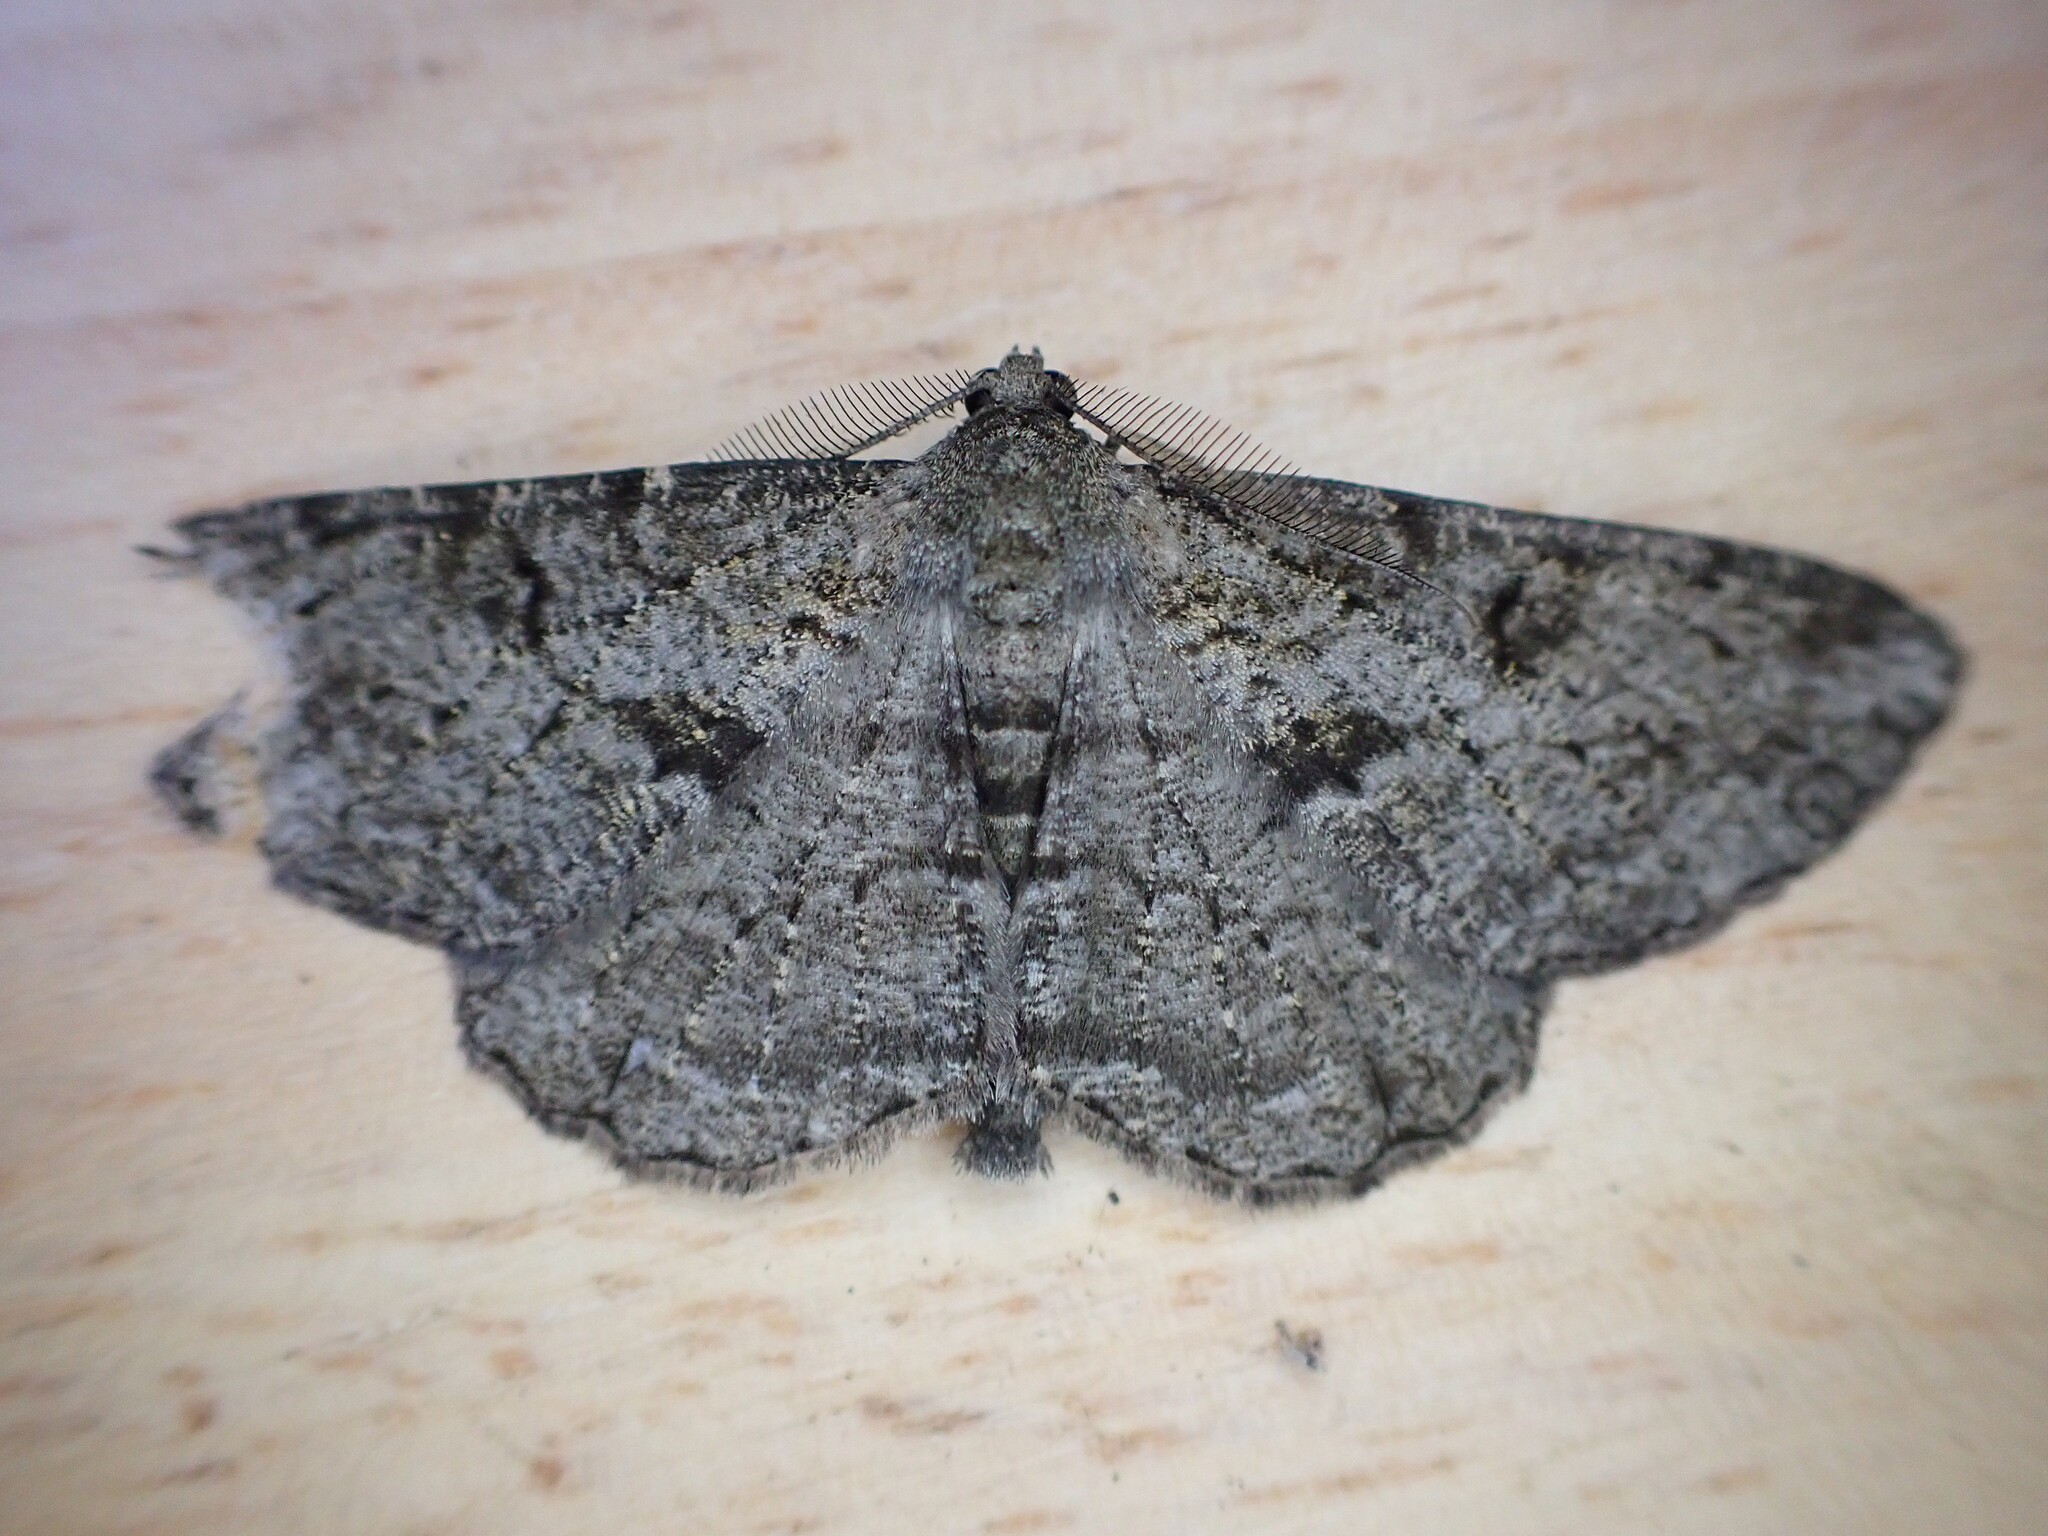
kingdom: Animalia
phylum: Arthropoda
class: Insecta
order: Lepidoptera
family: Geometridae
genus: Peribatodes
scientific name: Peribatodes rhomboidaria
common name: Willow beauty
